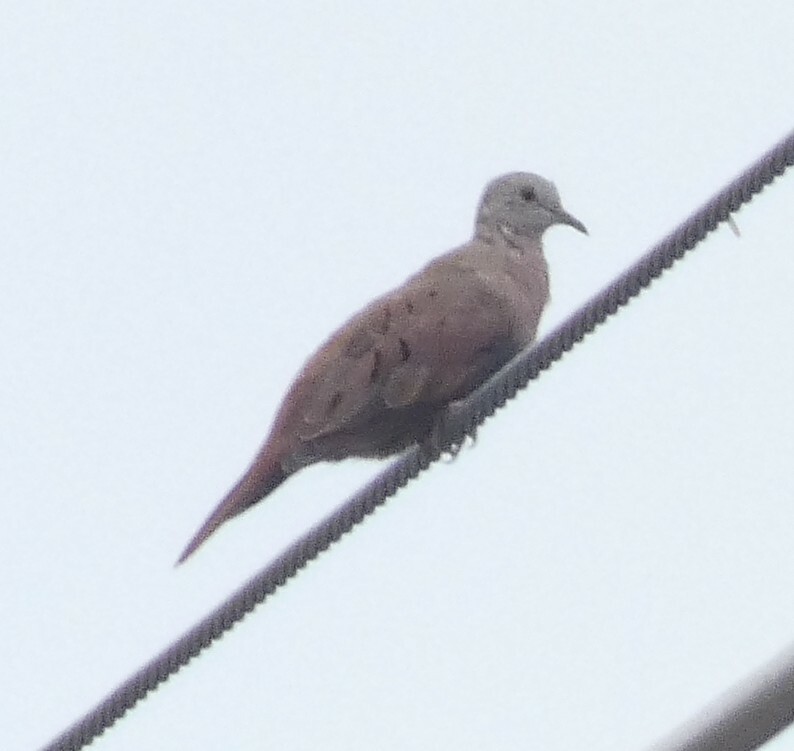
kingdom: Animalia
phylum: Chordata
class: Aves
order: Columbiformes
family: Columbidae
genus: Columbina
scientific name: Columbina talpacoti
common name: Ruddy ground dove
